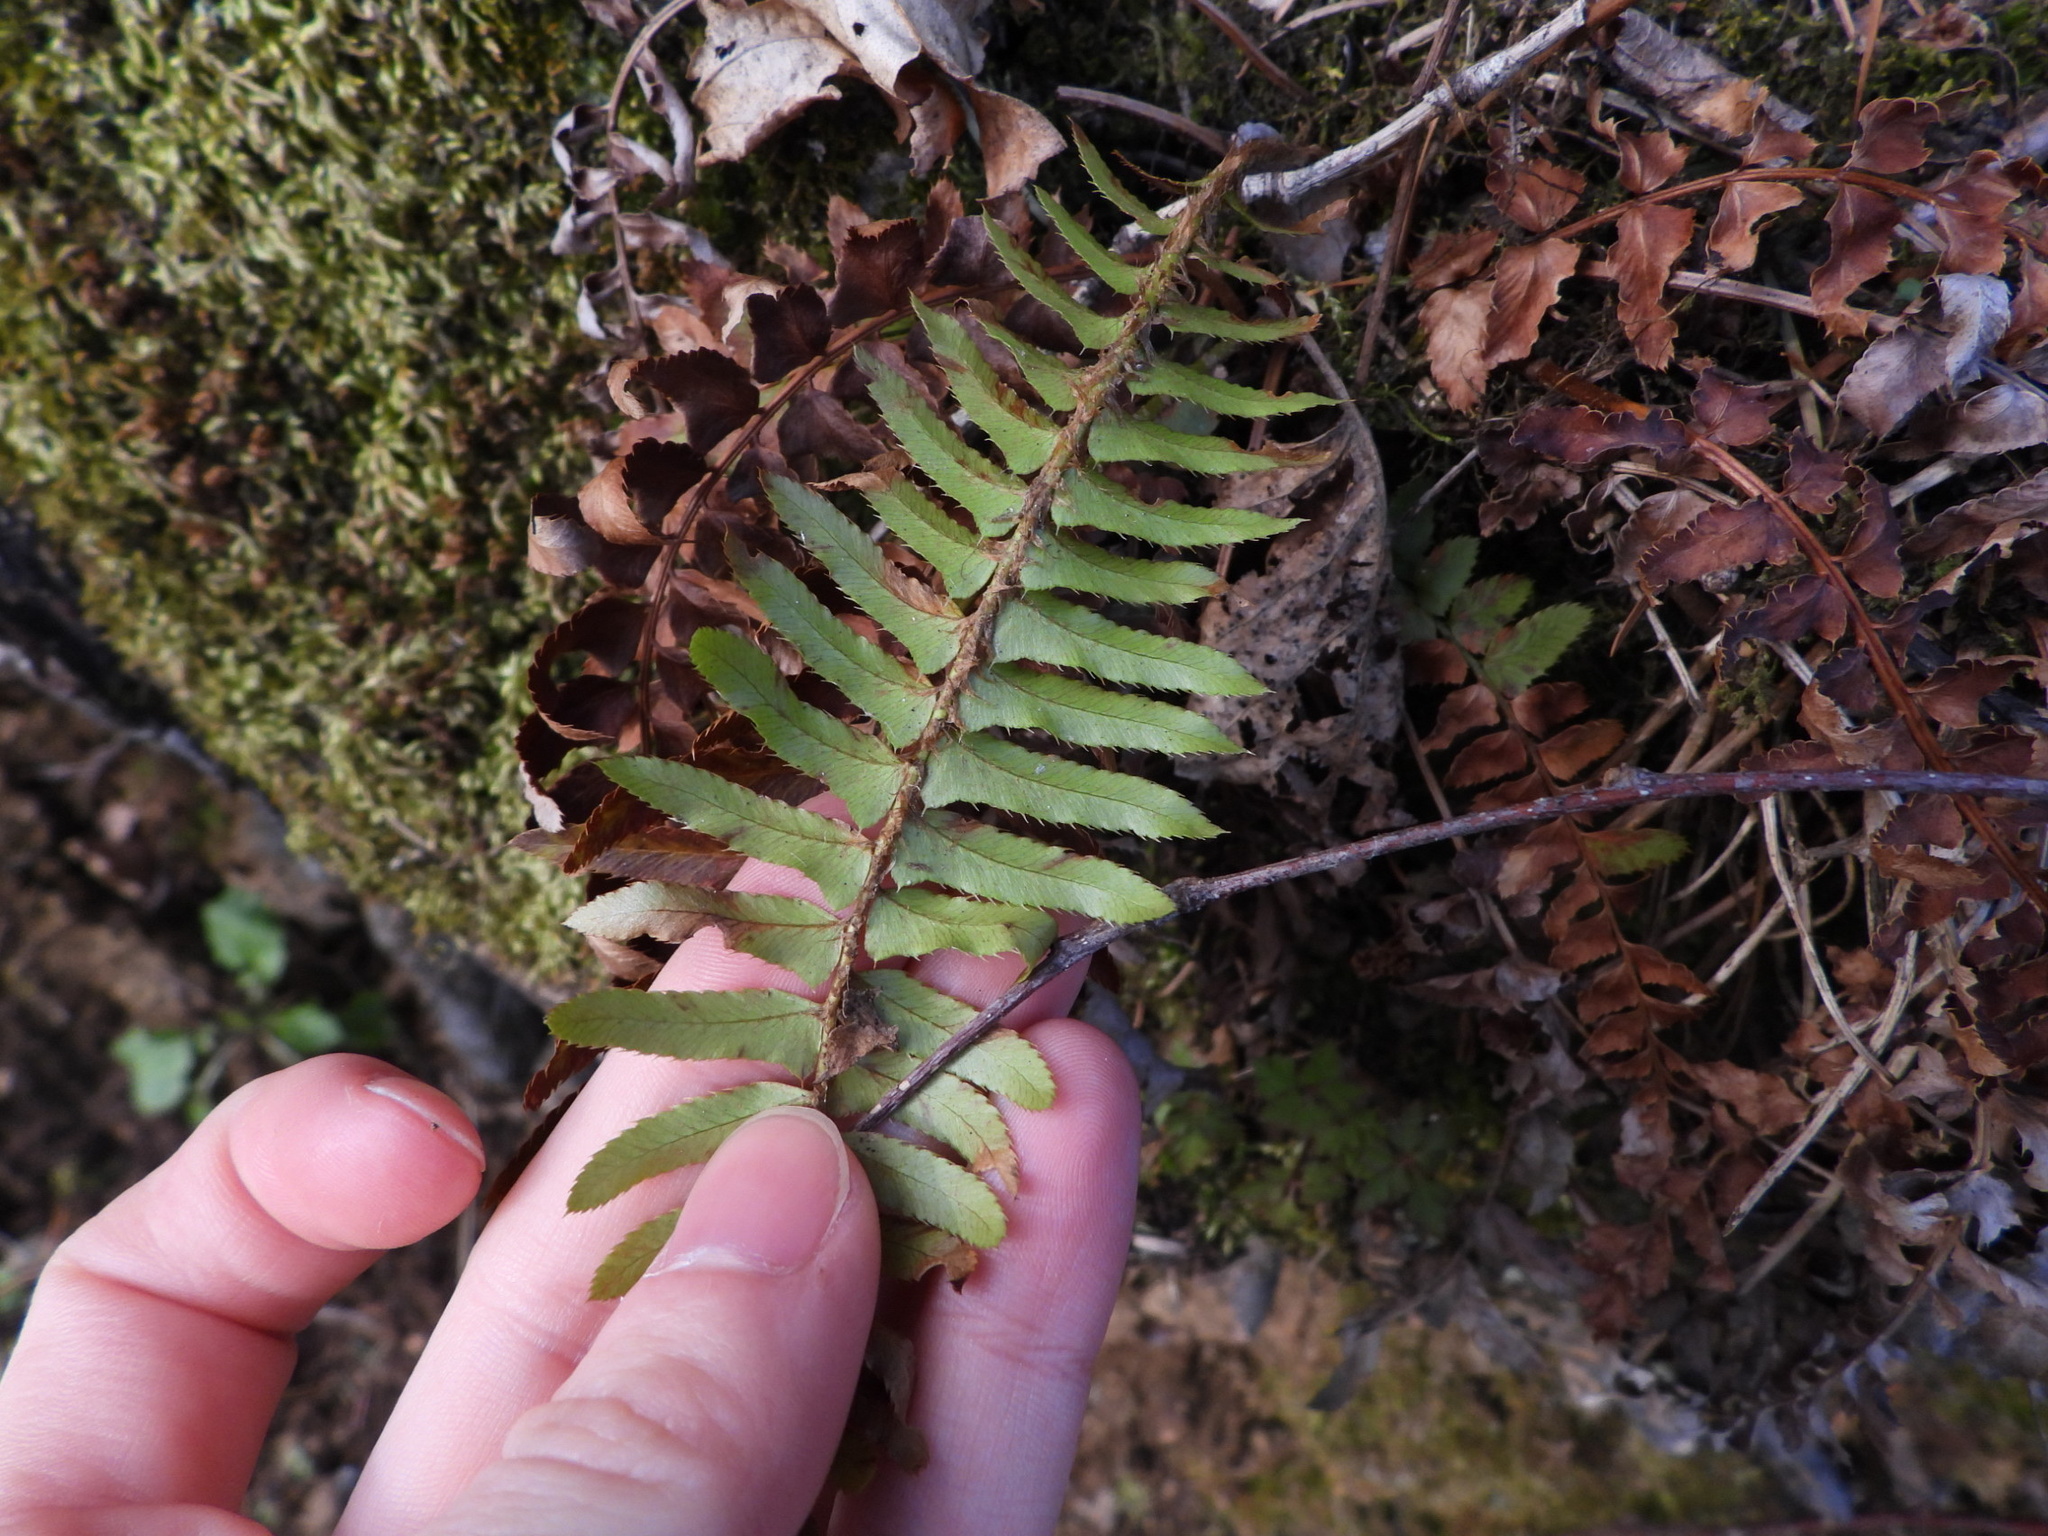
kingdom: Plantae
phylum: Tracheophyta
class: Polypodiopsida
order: Polypodiales
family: Dryopteridaceae
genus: Polystichum
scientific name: Polystichum munitum
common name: Western sword-fern
